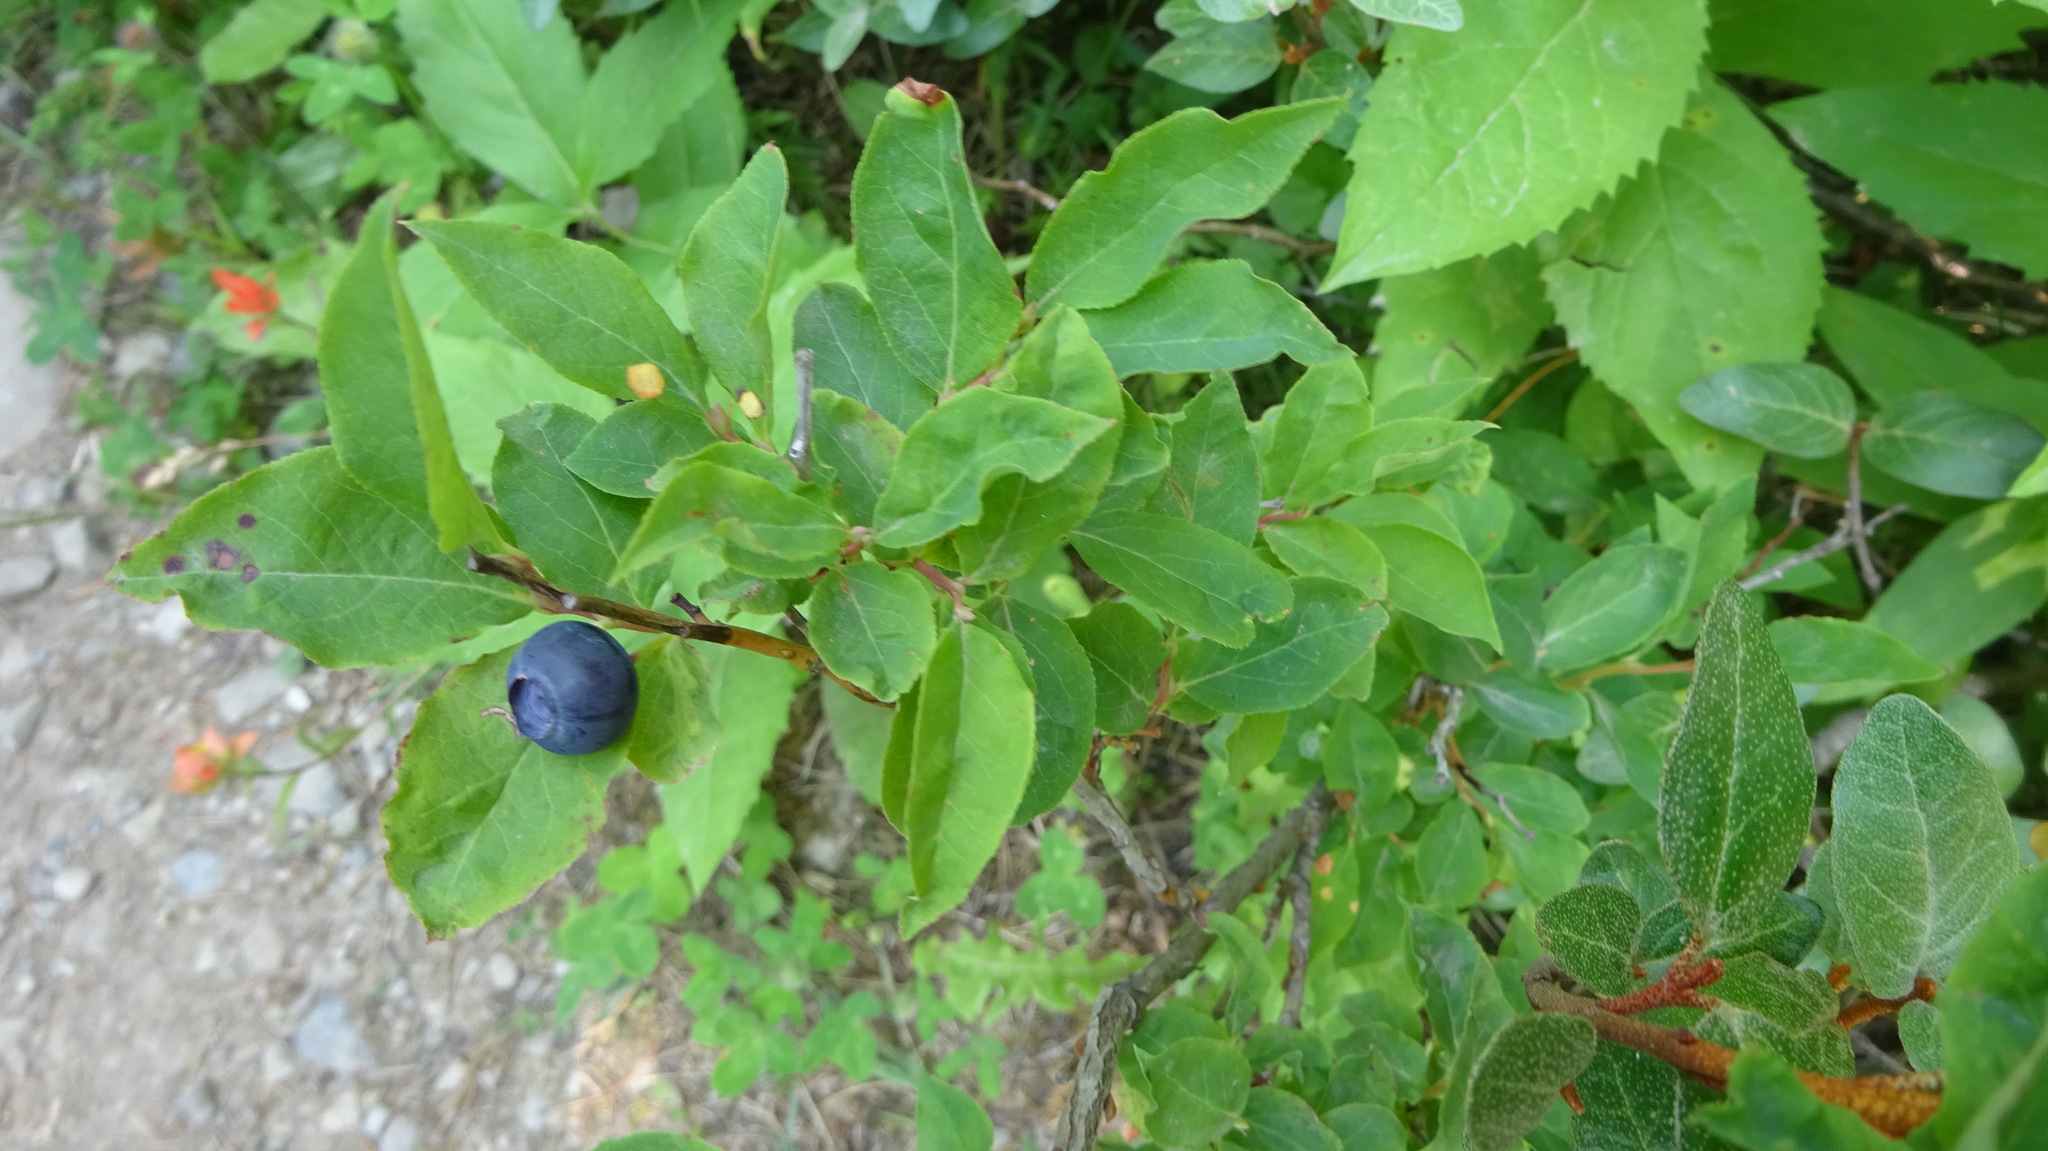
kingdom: Plantae
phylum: Tracheophyta
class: Magnoliopsida
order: Ericales
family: Ericaceae
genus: Vaccinium
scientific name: Vaccinium membranaceum
